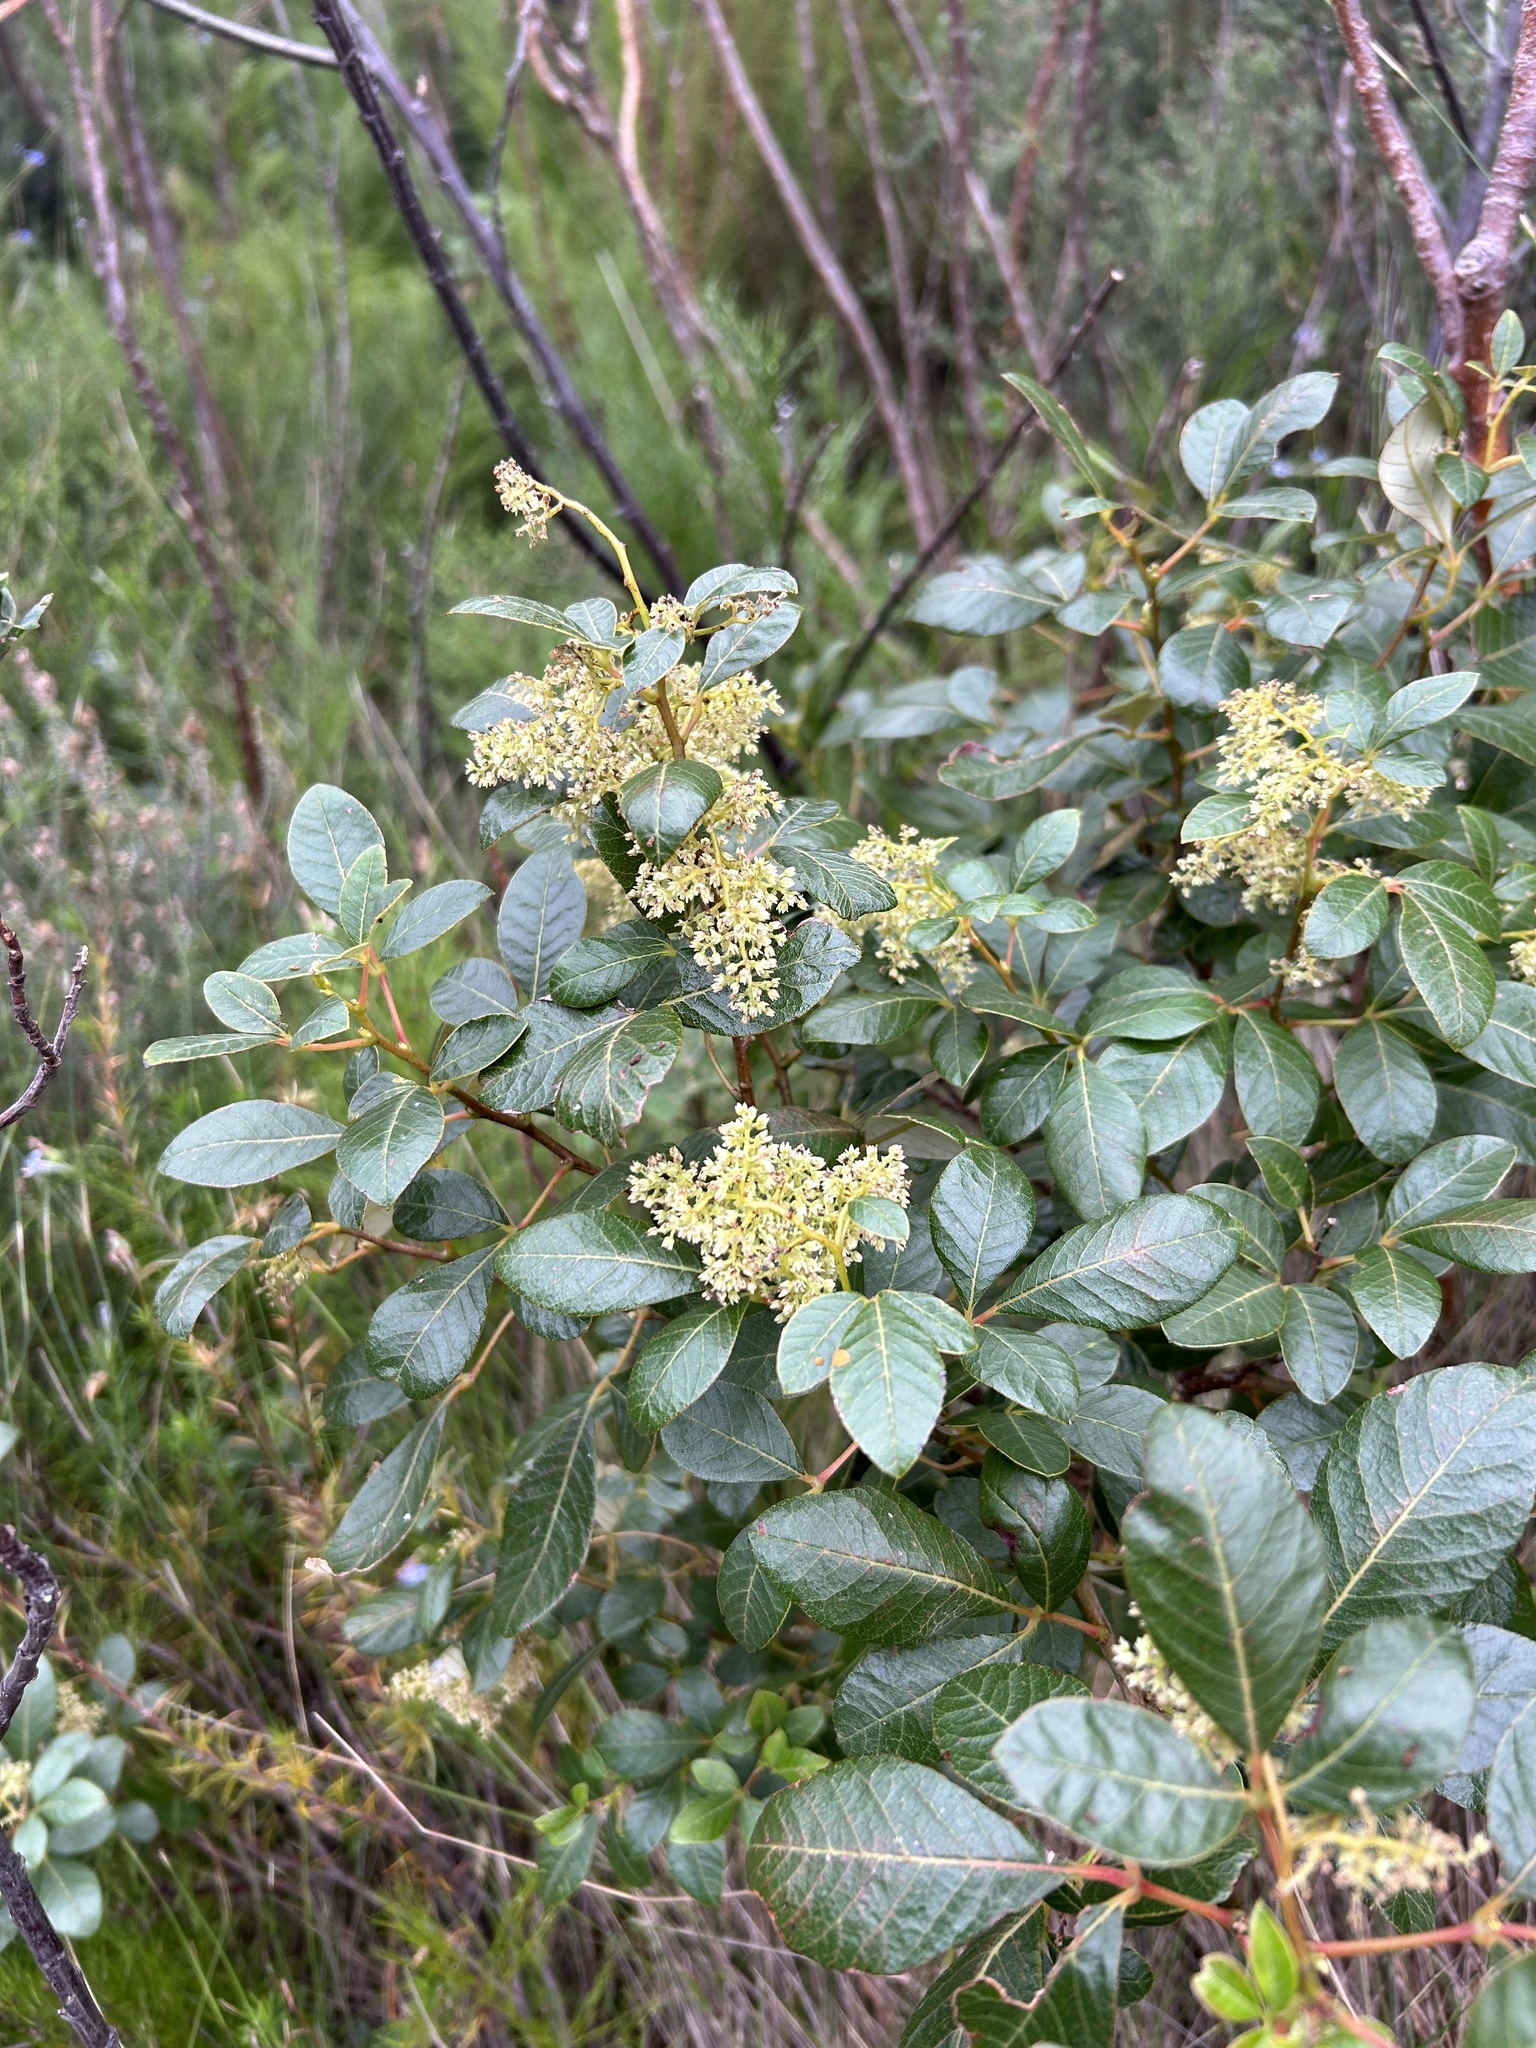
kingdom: Plantae
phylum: Tracheophyta
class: Magnoliopsida
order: Sapindales
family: Anacardiaceae
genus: Searsia
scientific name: Searsia tomentosa
